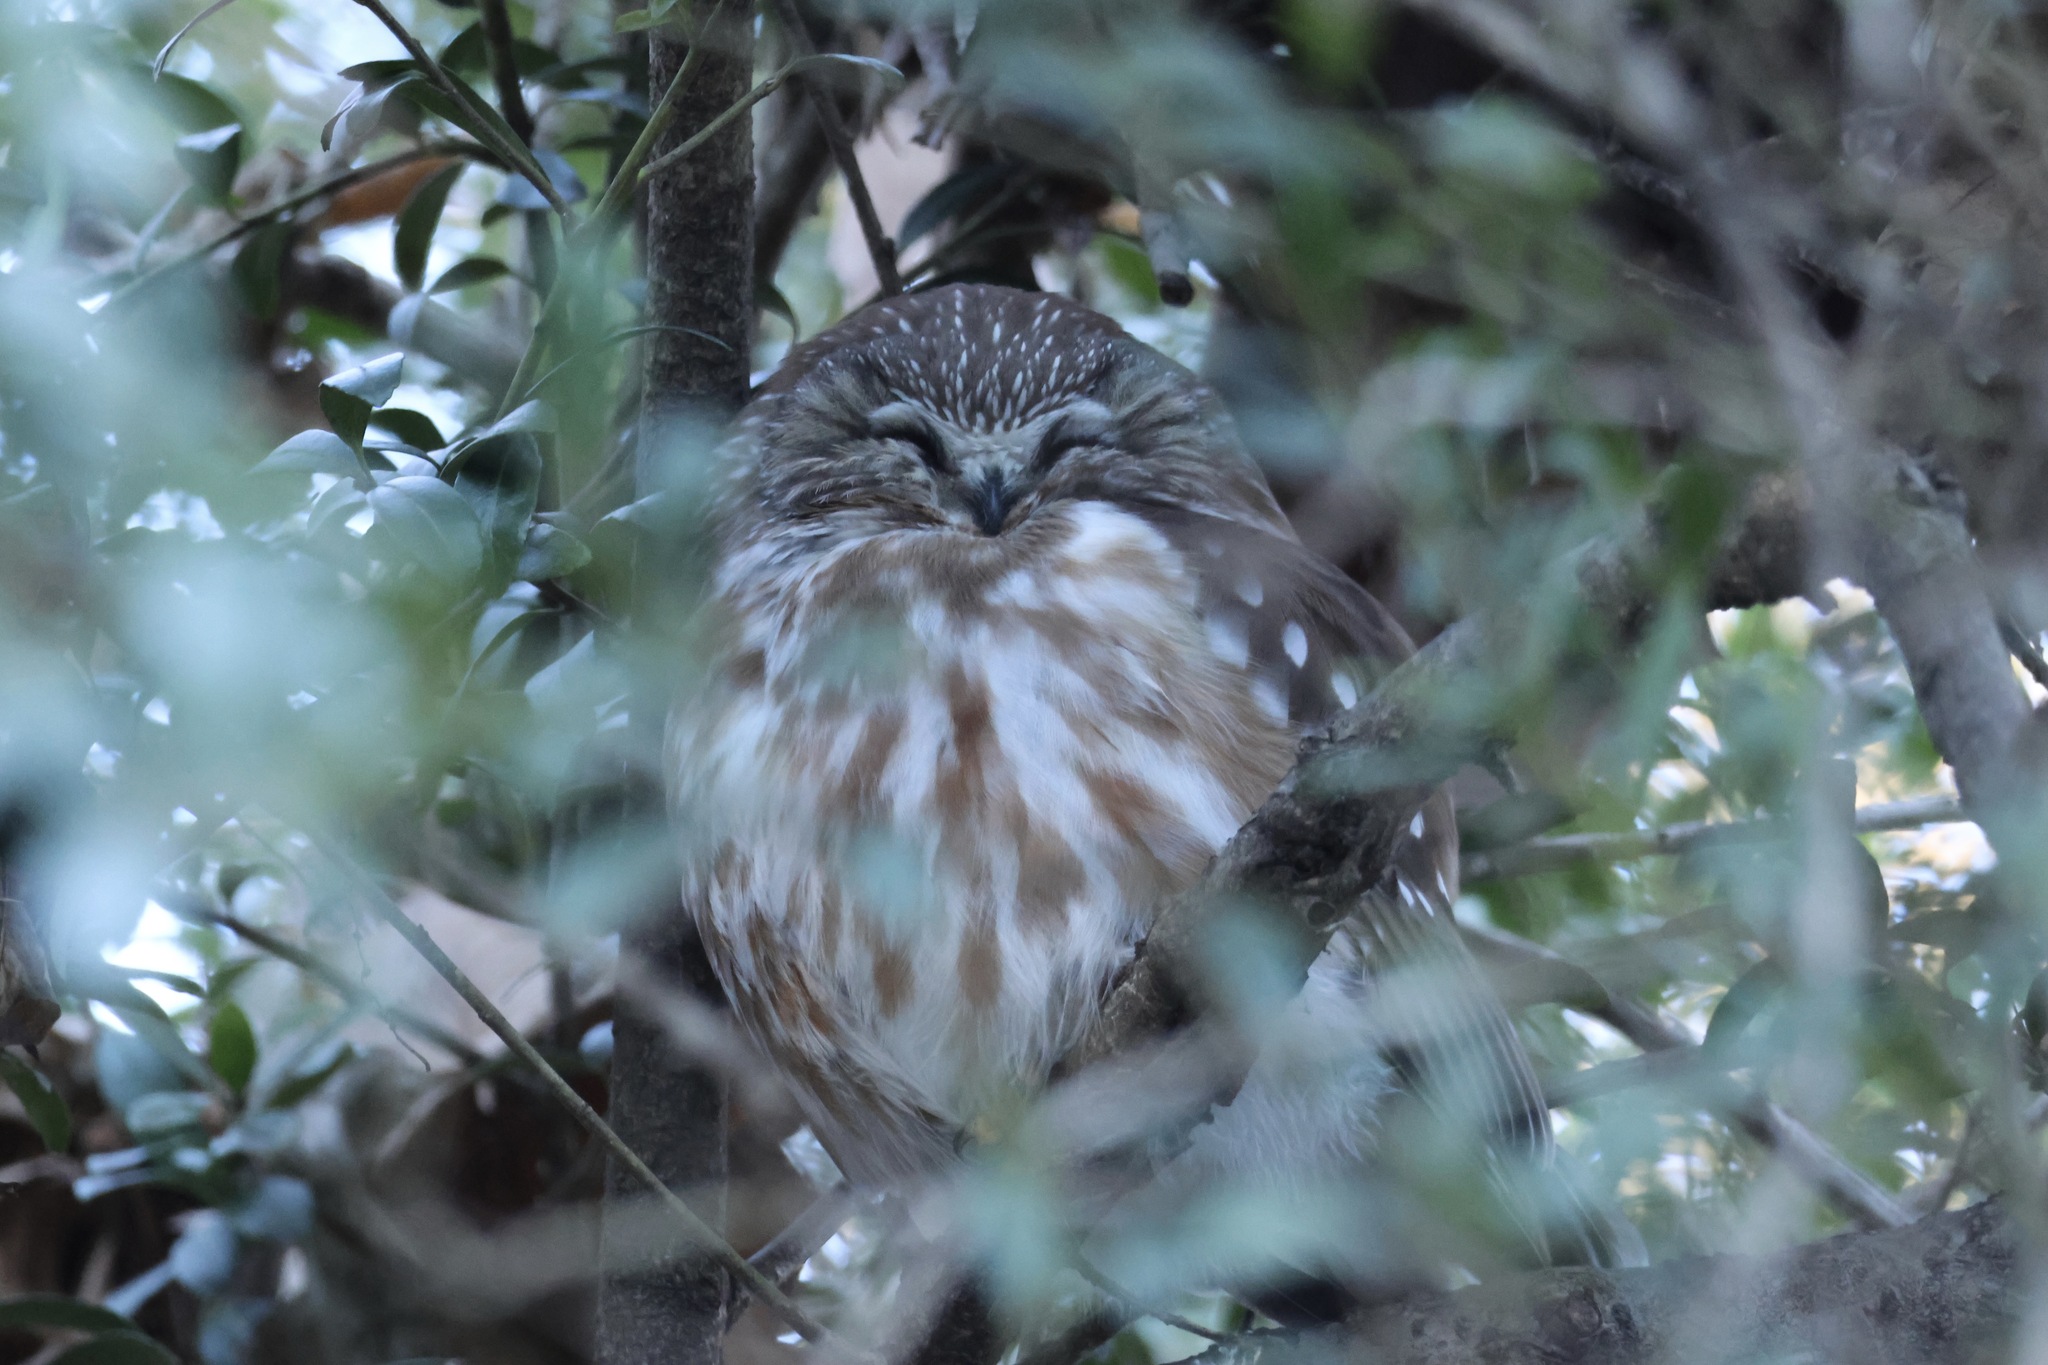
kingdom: Animalia
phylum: Chordata
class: Aves
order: Strigiformes
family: Strigidae
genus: Aegolius
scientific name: Aegolius acadicus
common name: Northern saw-whet owl
